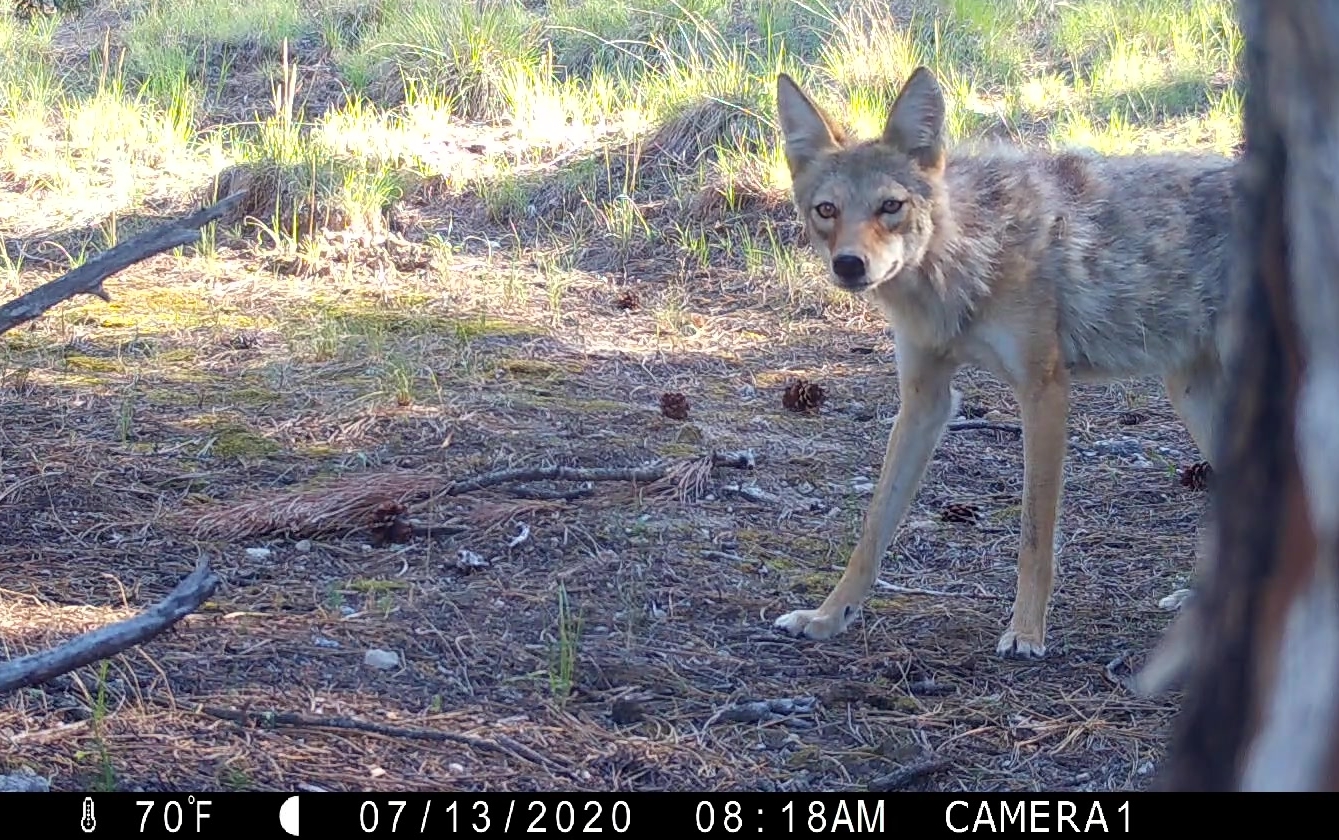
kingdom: Animalia
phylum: Chordata
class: Mammalia
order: Carnivora
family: Canidae
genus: Canis
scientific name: Canis latrans
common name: Coyote
